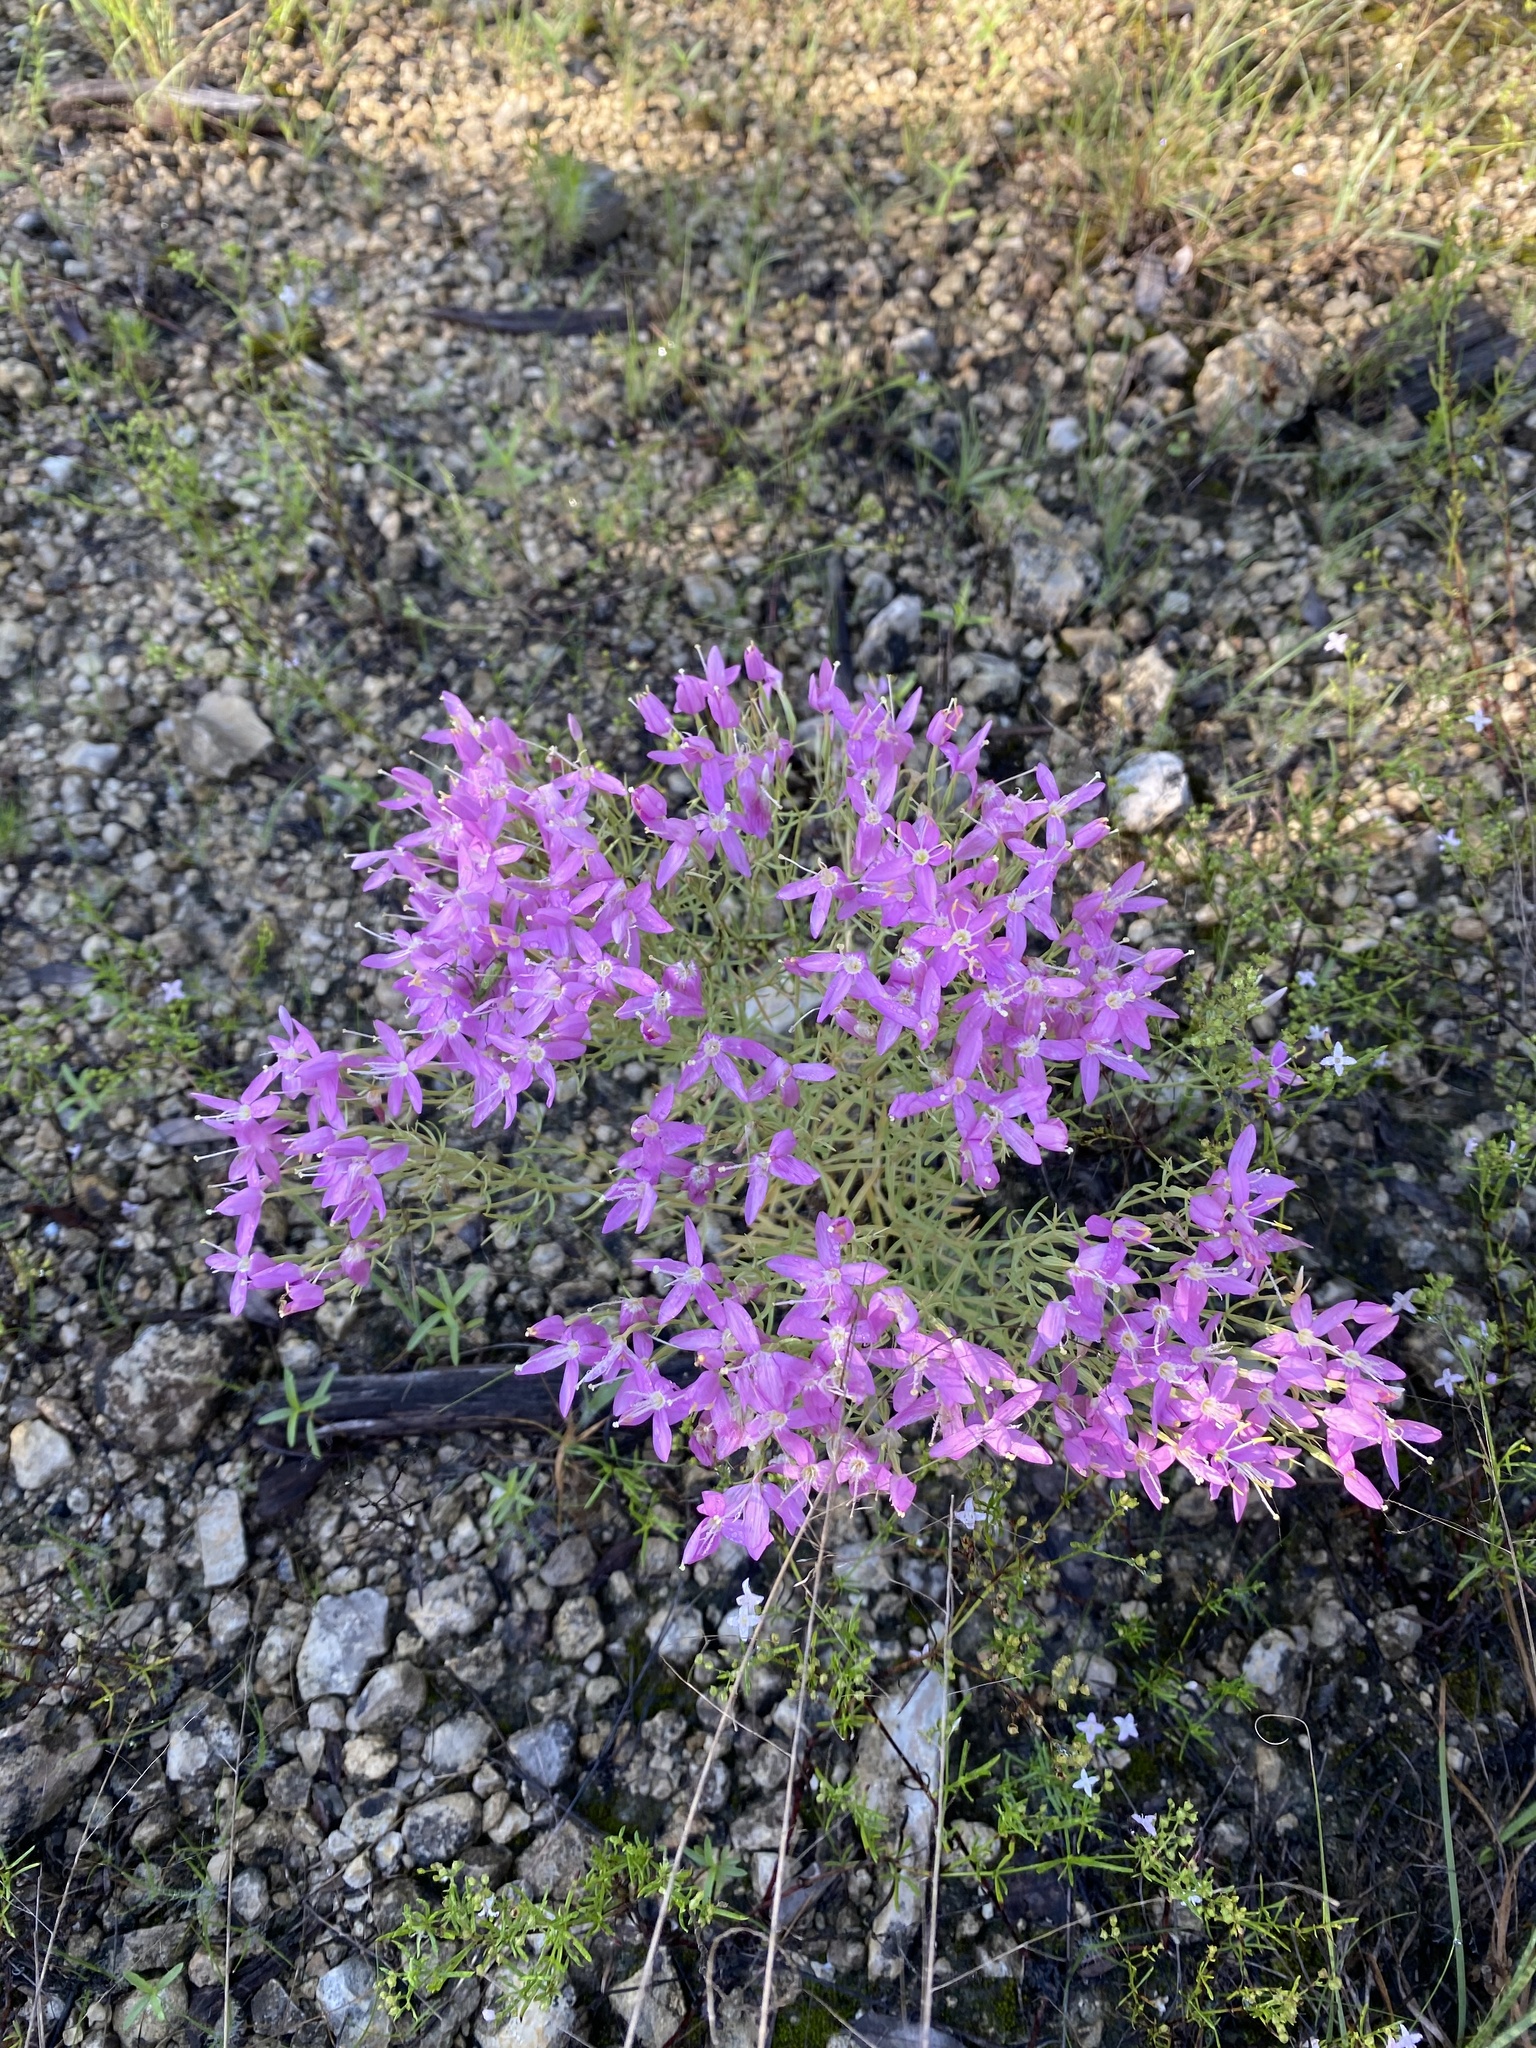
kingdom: Plantae
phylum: Tracheophyta
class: Magnoliopsida
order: Gentianales
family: Gentianaceae
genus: Zeltnera
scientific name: Zeltnera beyrichii
